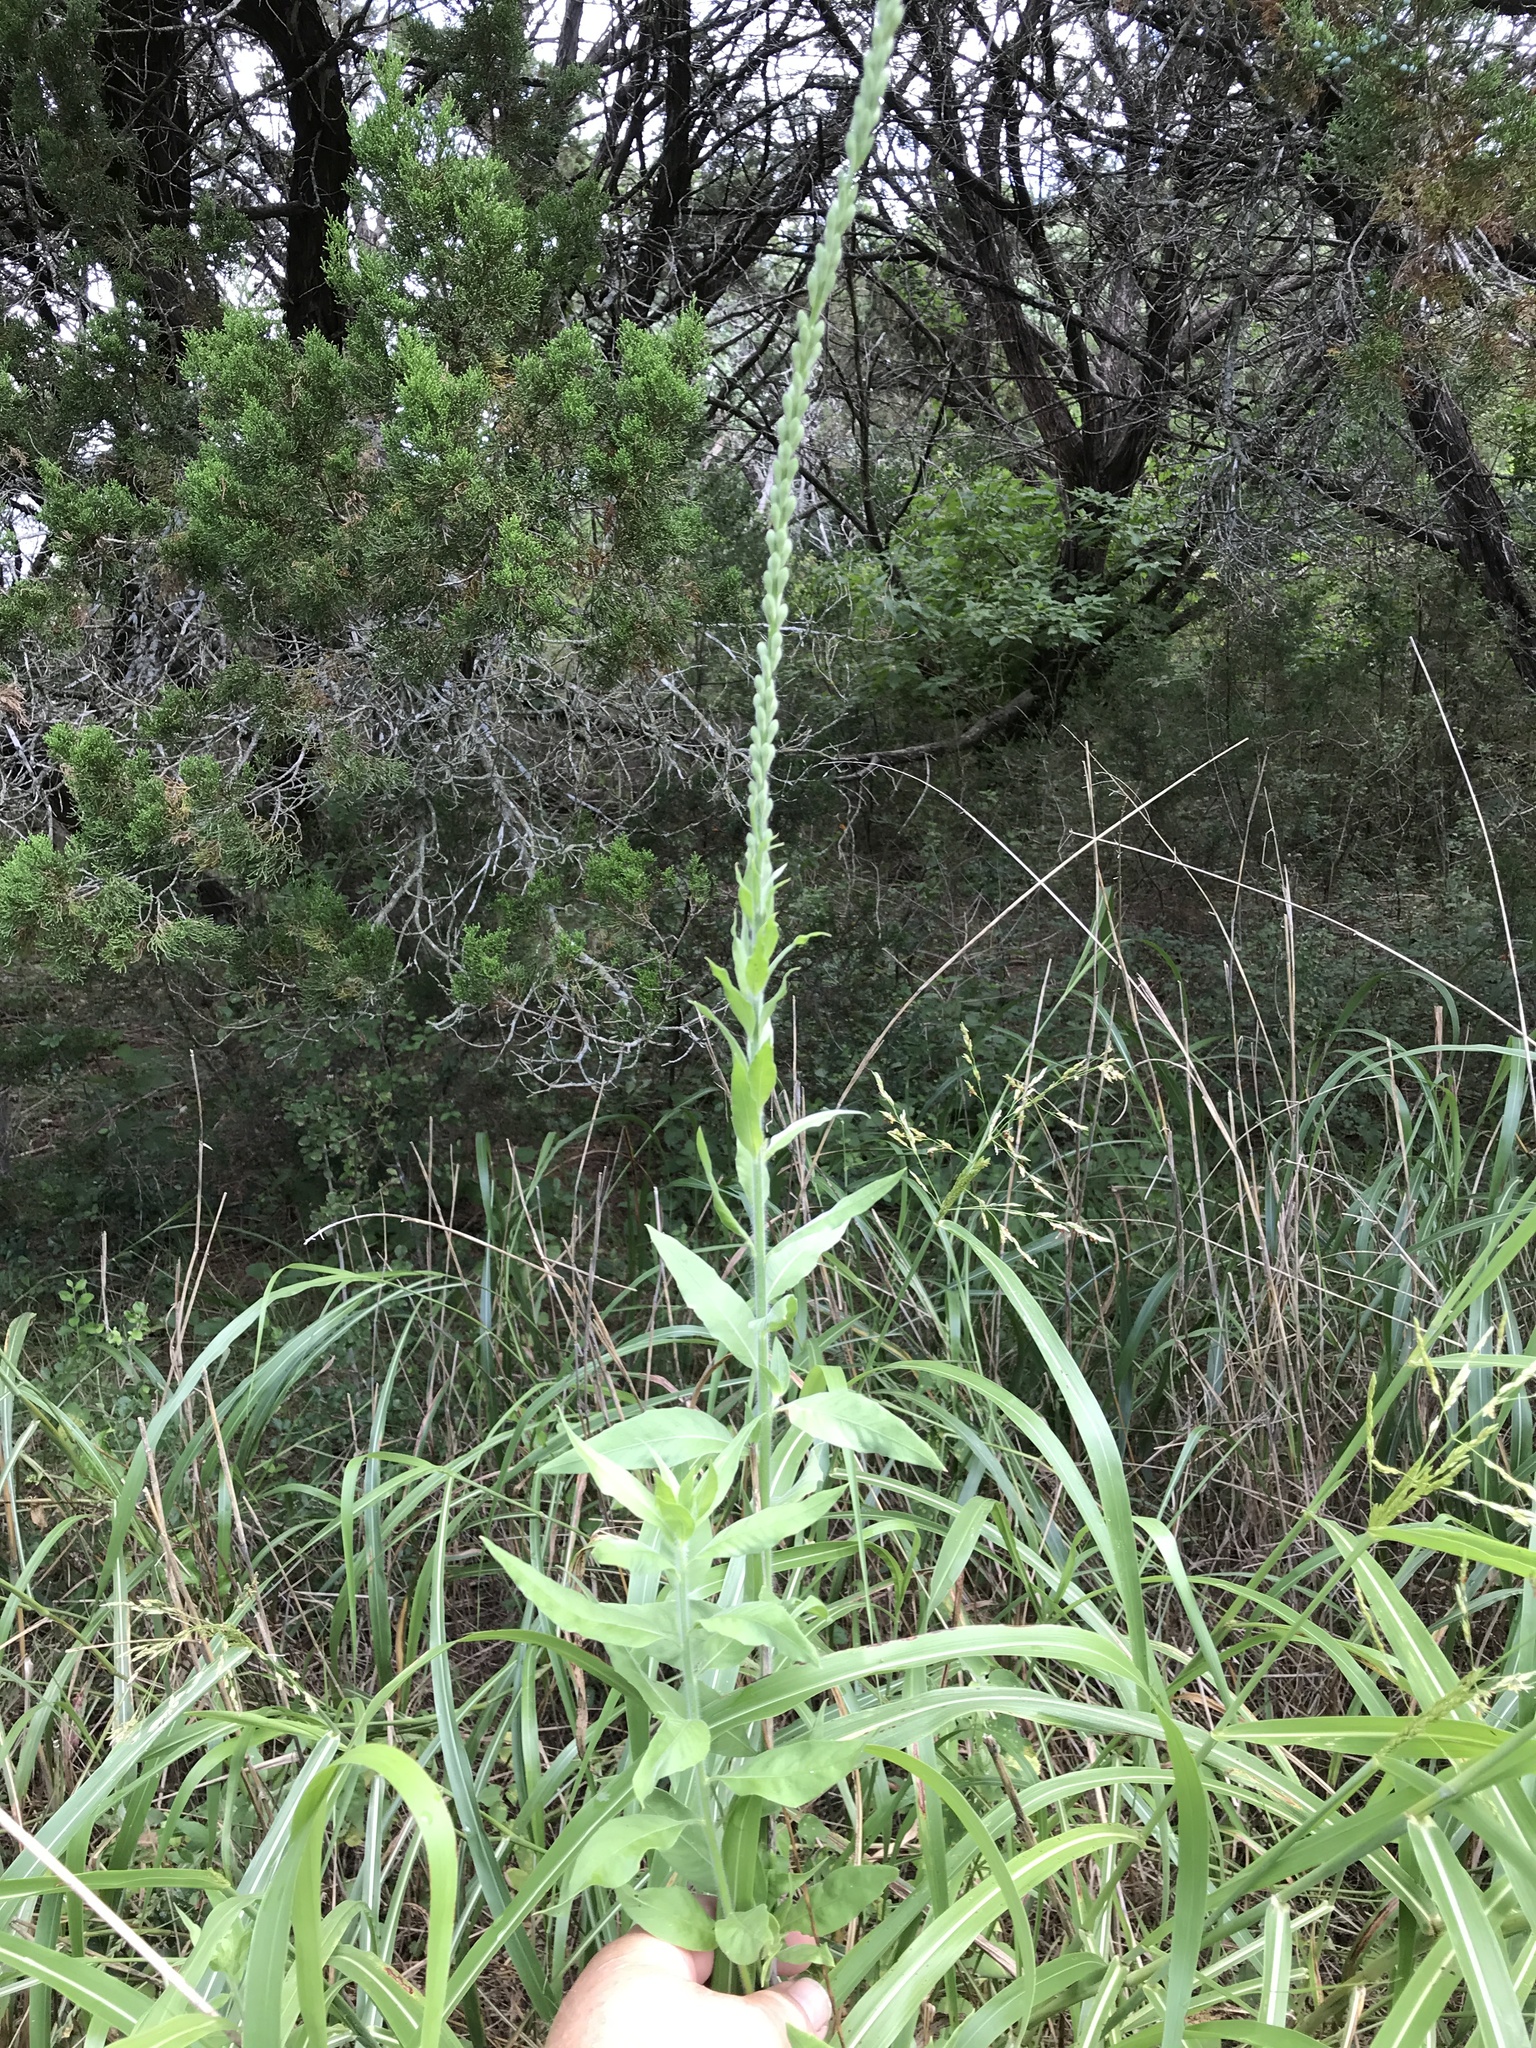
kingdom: Plantae
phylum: Tracheophyta
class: Magnoliopsida
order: Myrtales
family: Onagraceae
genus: Oenothera
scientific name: Oenothera curtiflora
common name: Velvetweed
